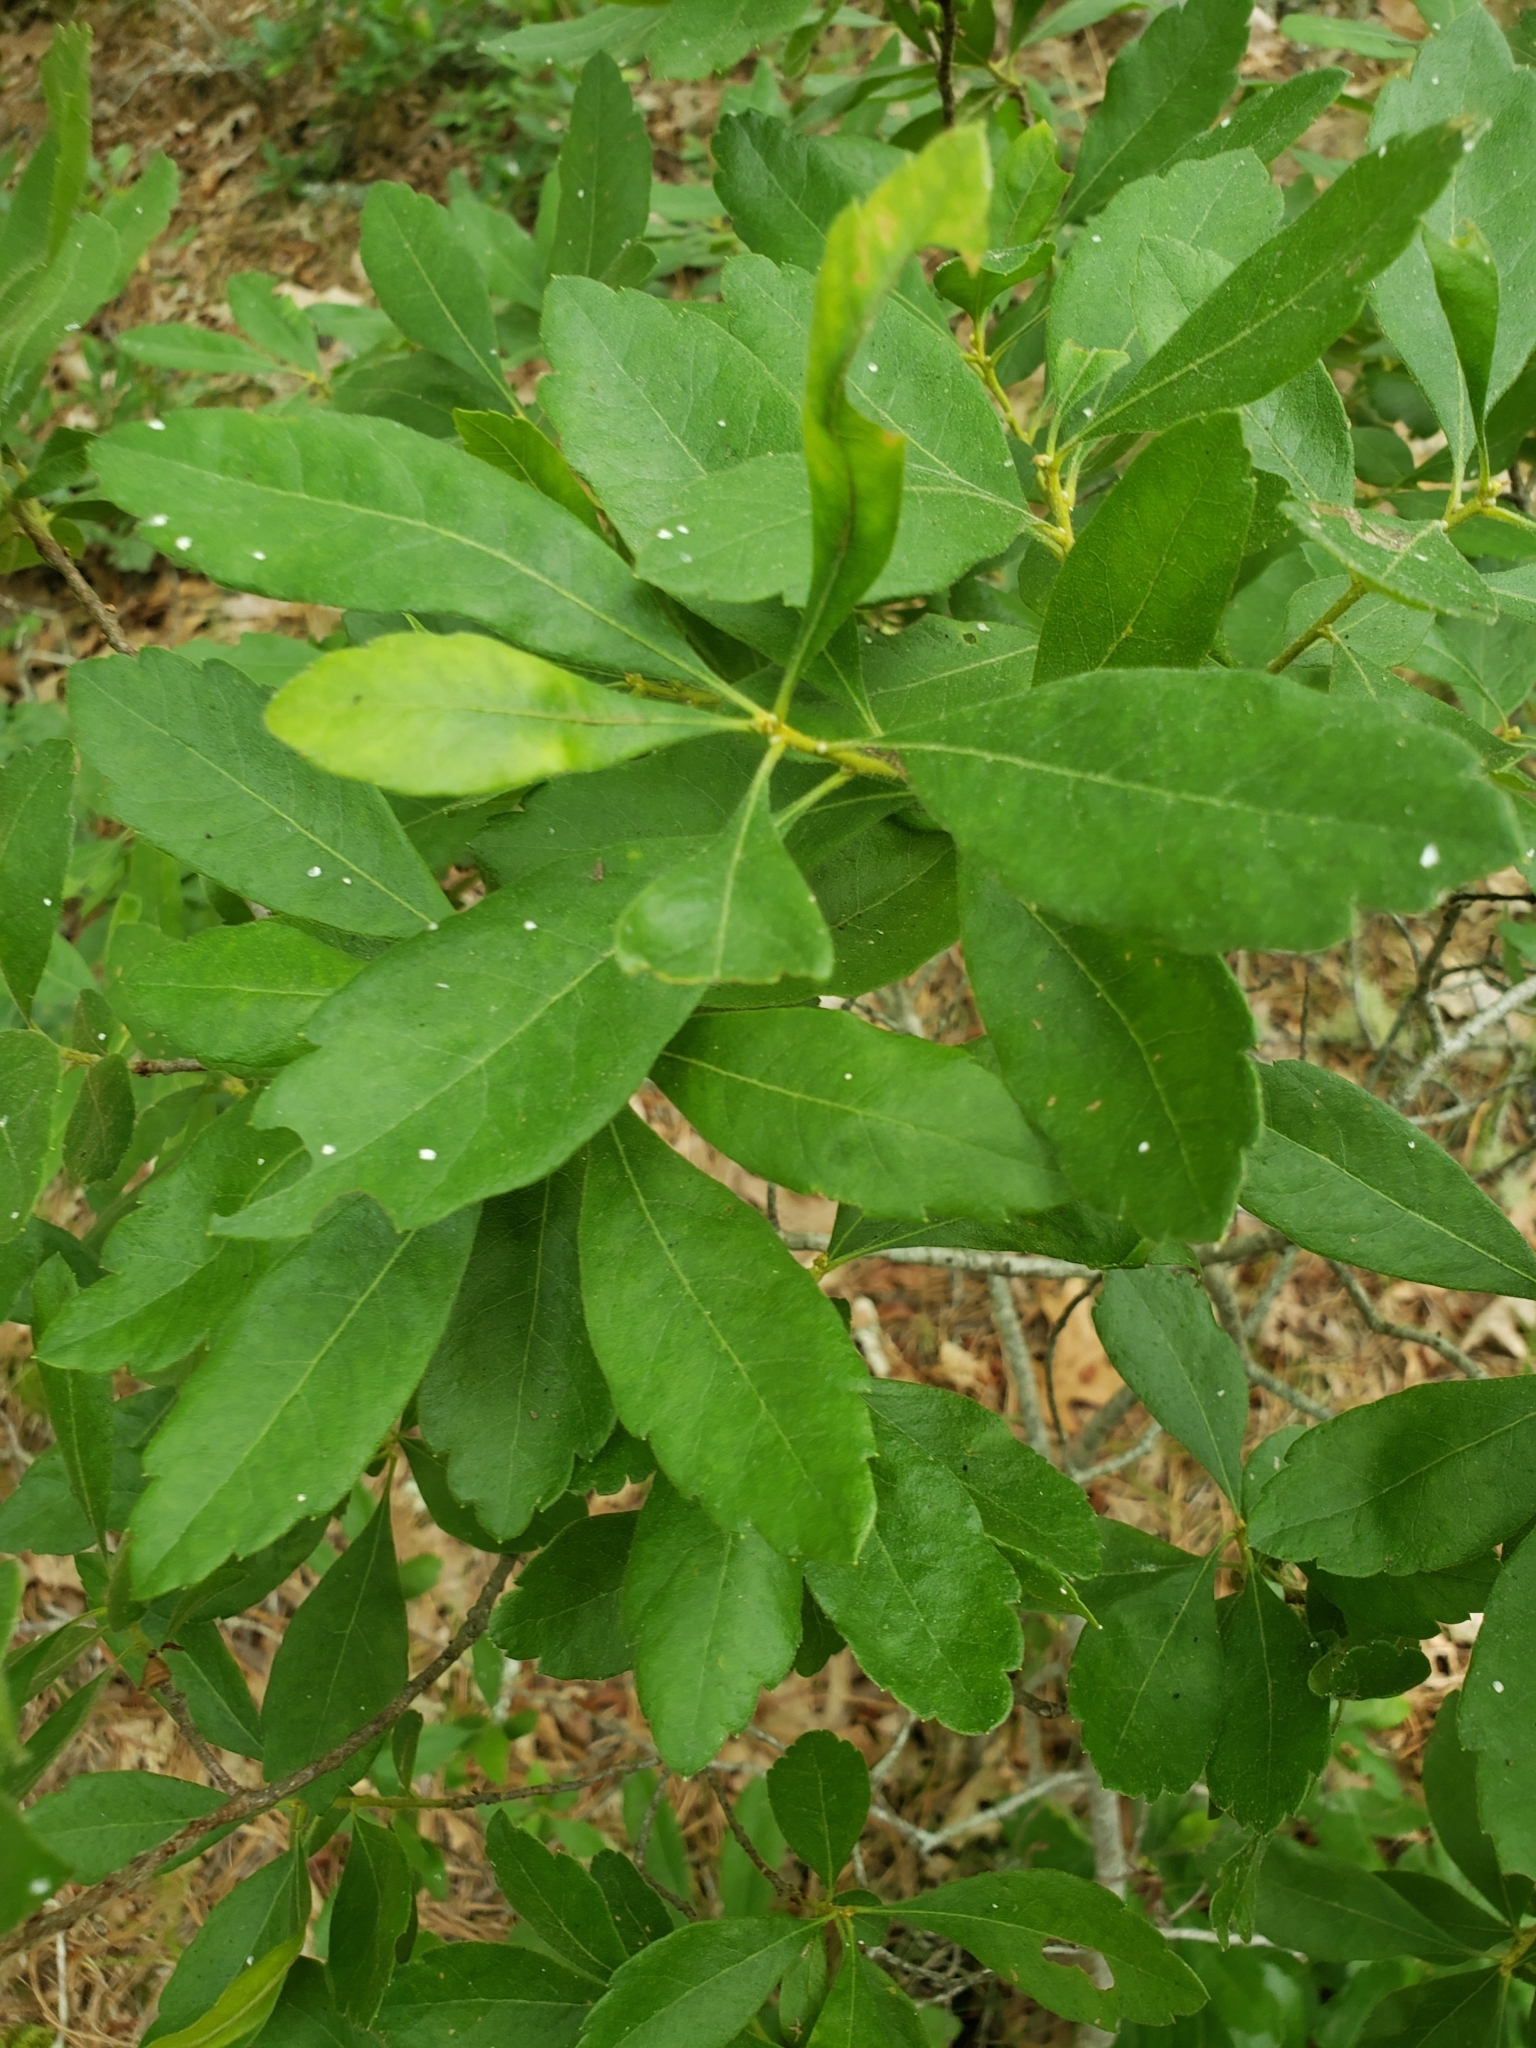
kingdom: Plantae
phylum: Tracheophyta
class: Magnoliopsida
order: Fagales
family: Myricaceae
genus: Morella
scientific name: Morella pensylvanica
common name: Northern bayberry
